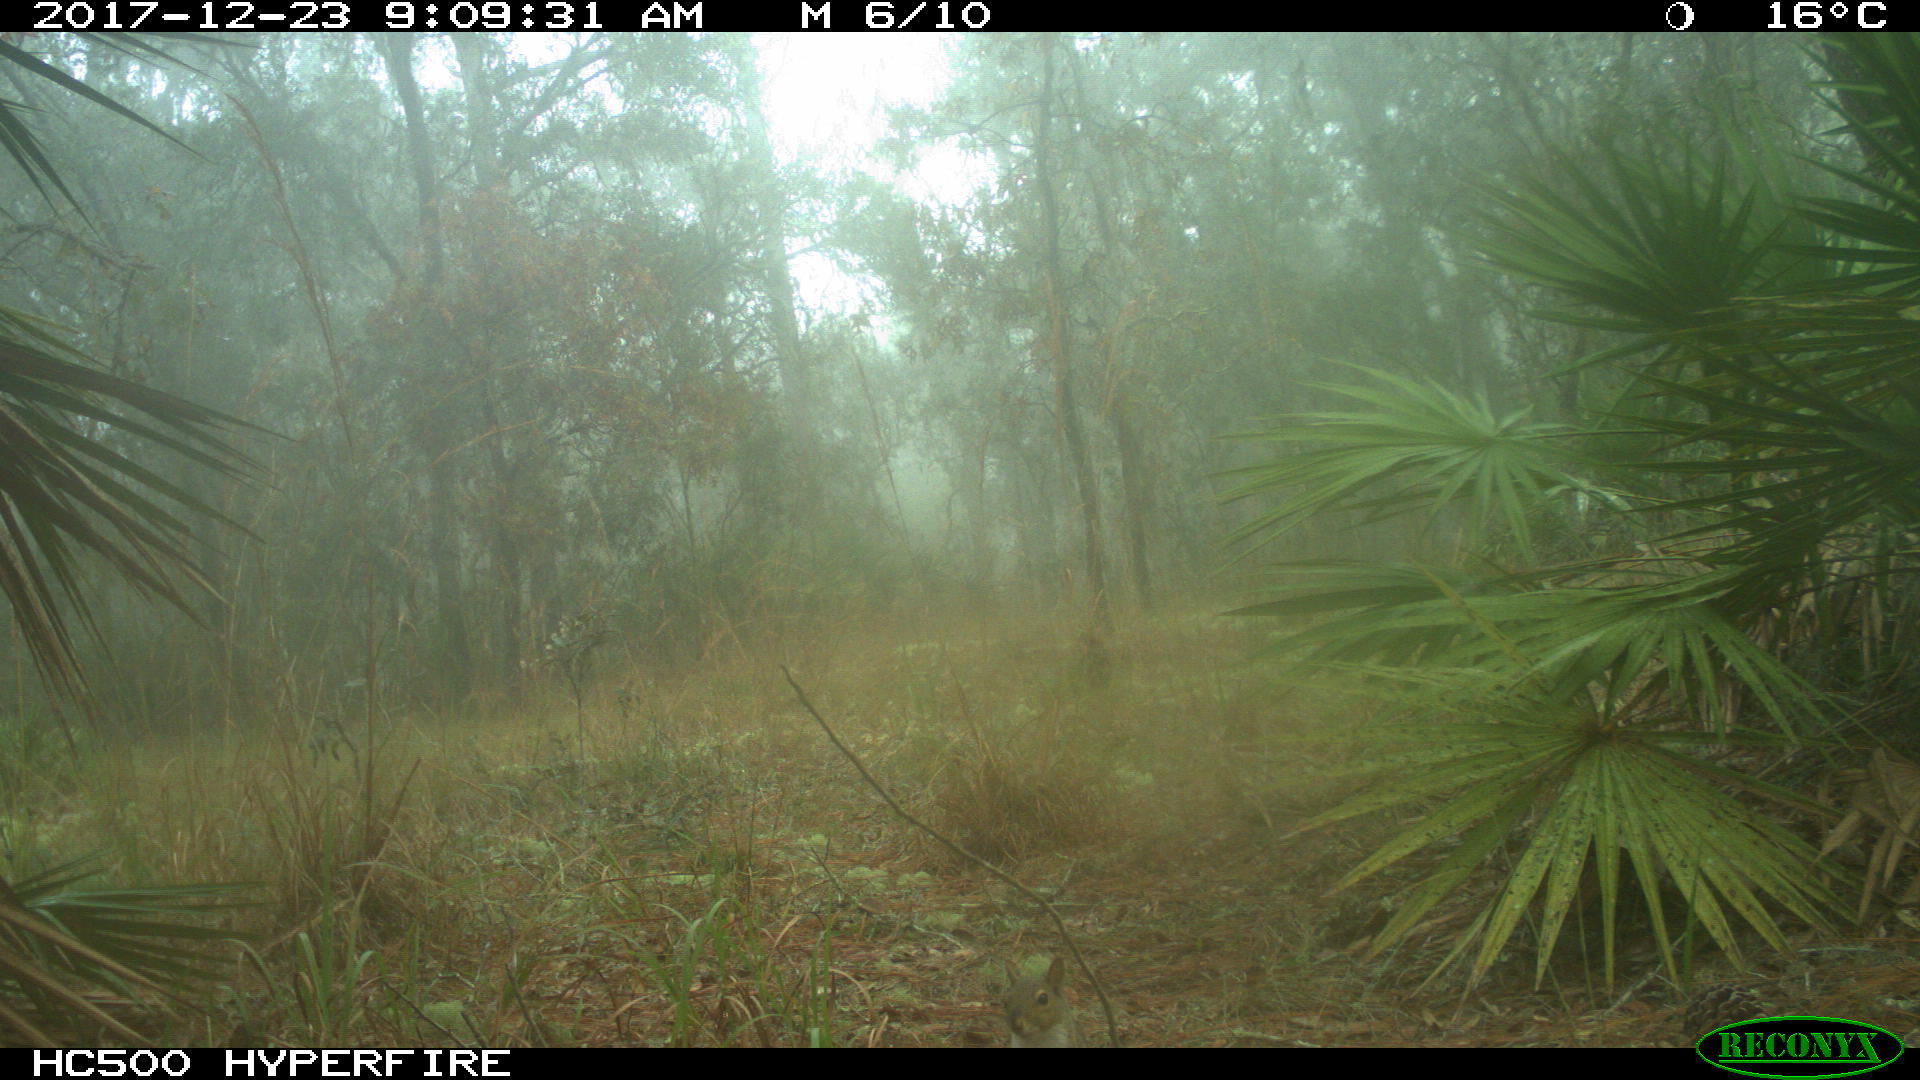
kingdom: Animalia
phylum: Chordata
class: Mammalia
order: Rodentia
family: Sciuridae
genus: Sciurus
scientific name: Sciurus carolinensis
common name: Eastern gray squirrel
